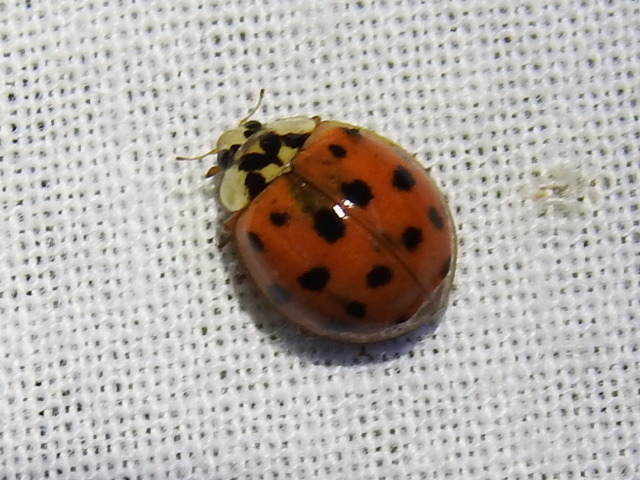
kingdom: Animalia
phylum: Arthropoda
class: Insecta
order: Coleoptera
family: Coccinellidae
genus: Harmonia
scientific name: Harmonia axyridis
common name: Harlequin ladybird
